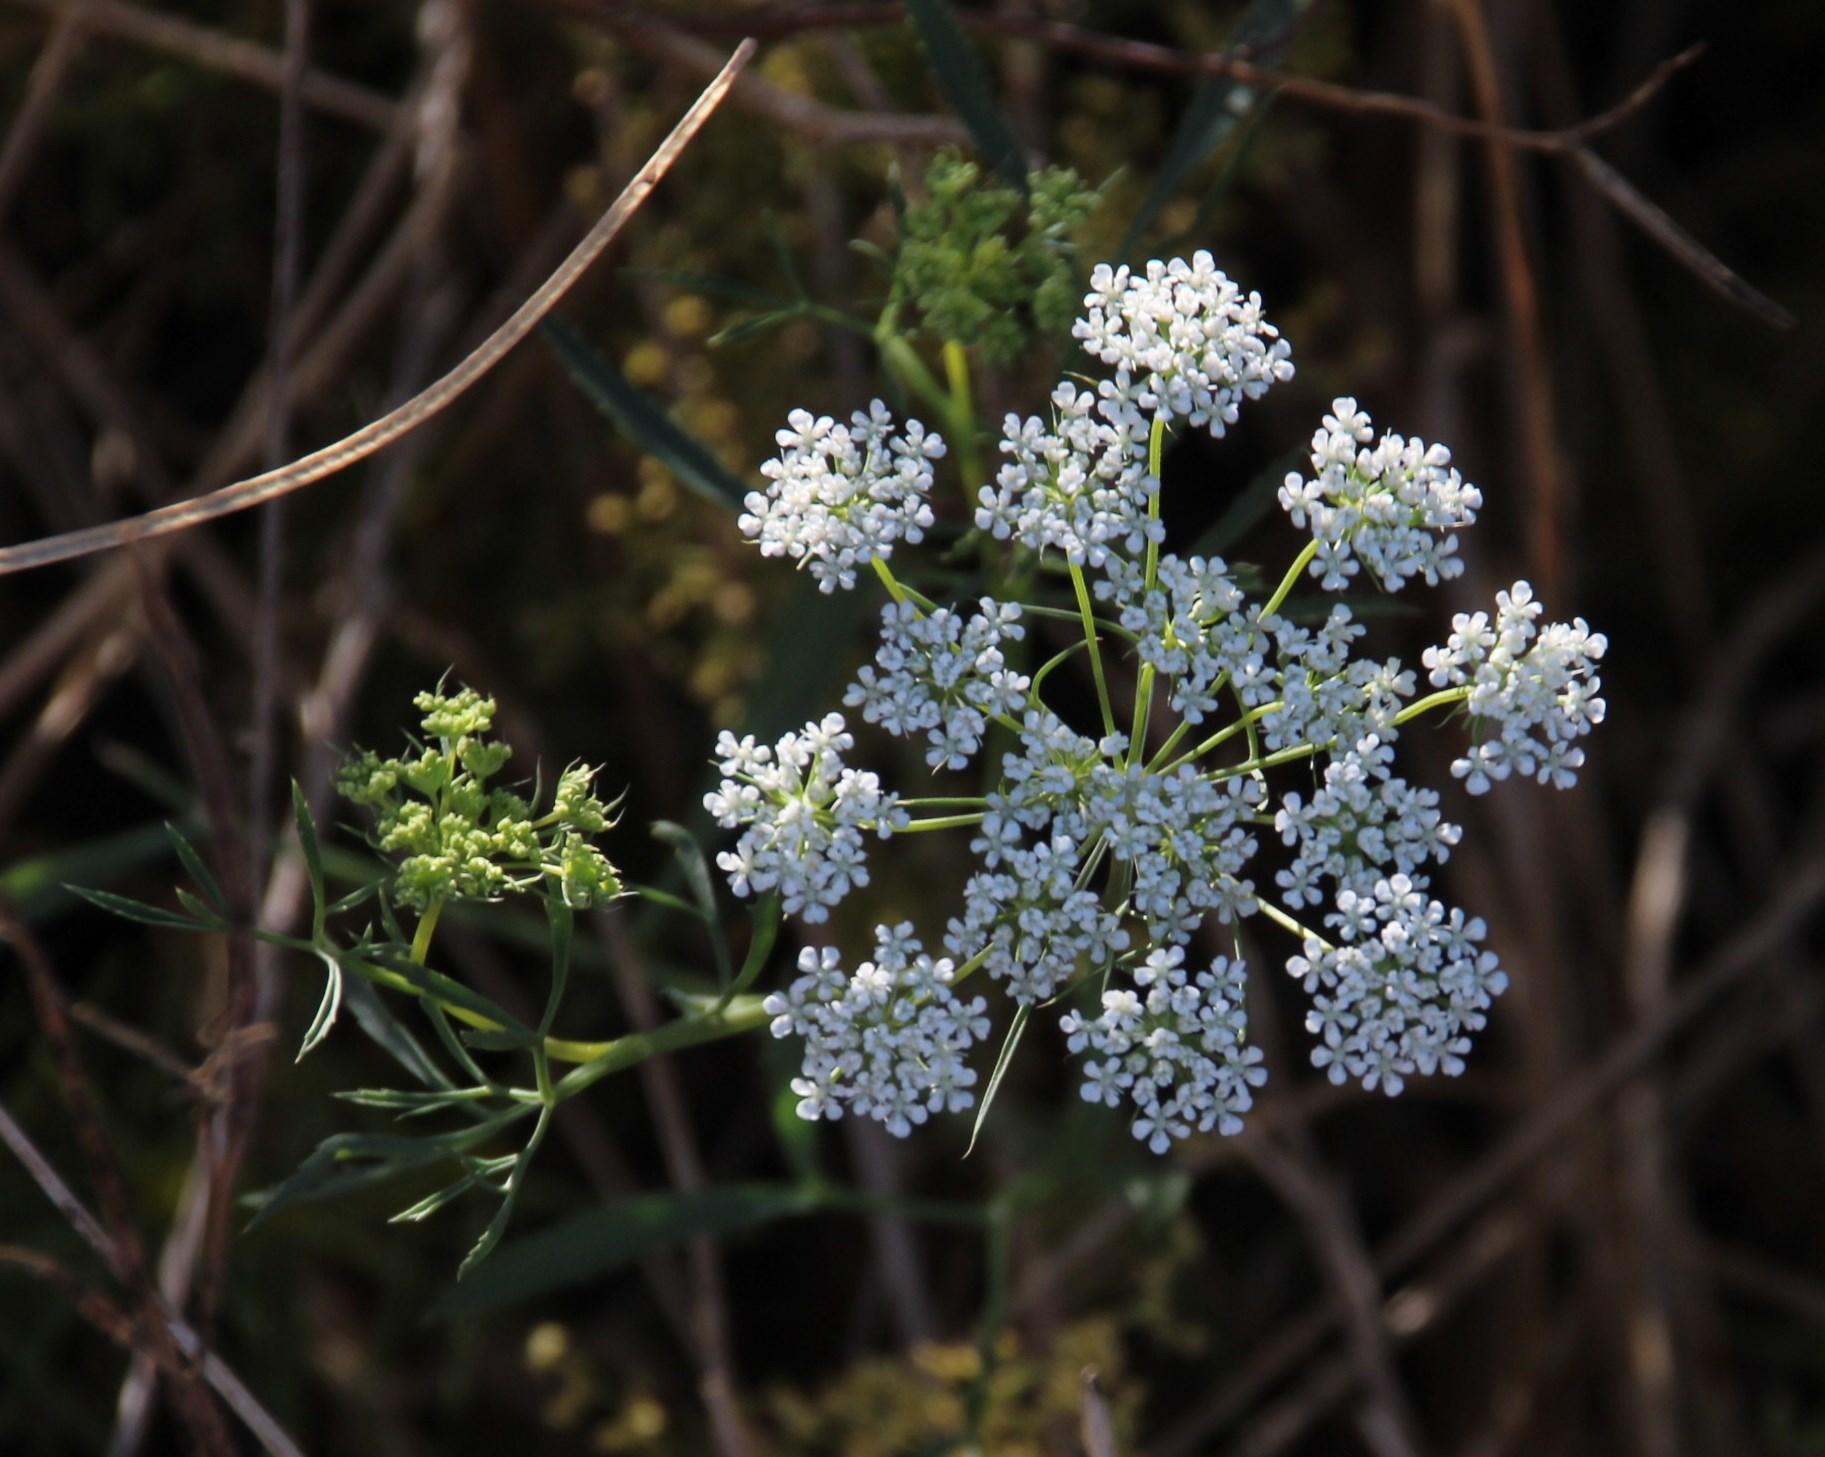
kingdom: Plantae
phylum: Tracheophyta
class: Magnoliopsida
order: Apiales
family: Apiaceae
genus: Ammi
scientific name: Ammi majus
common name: Bullwort
